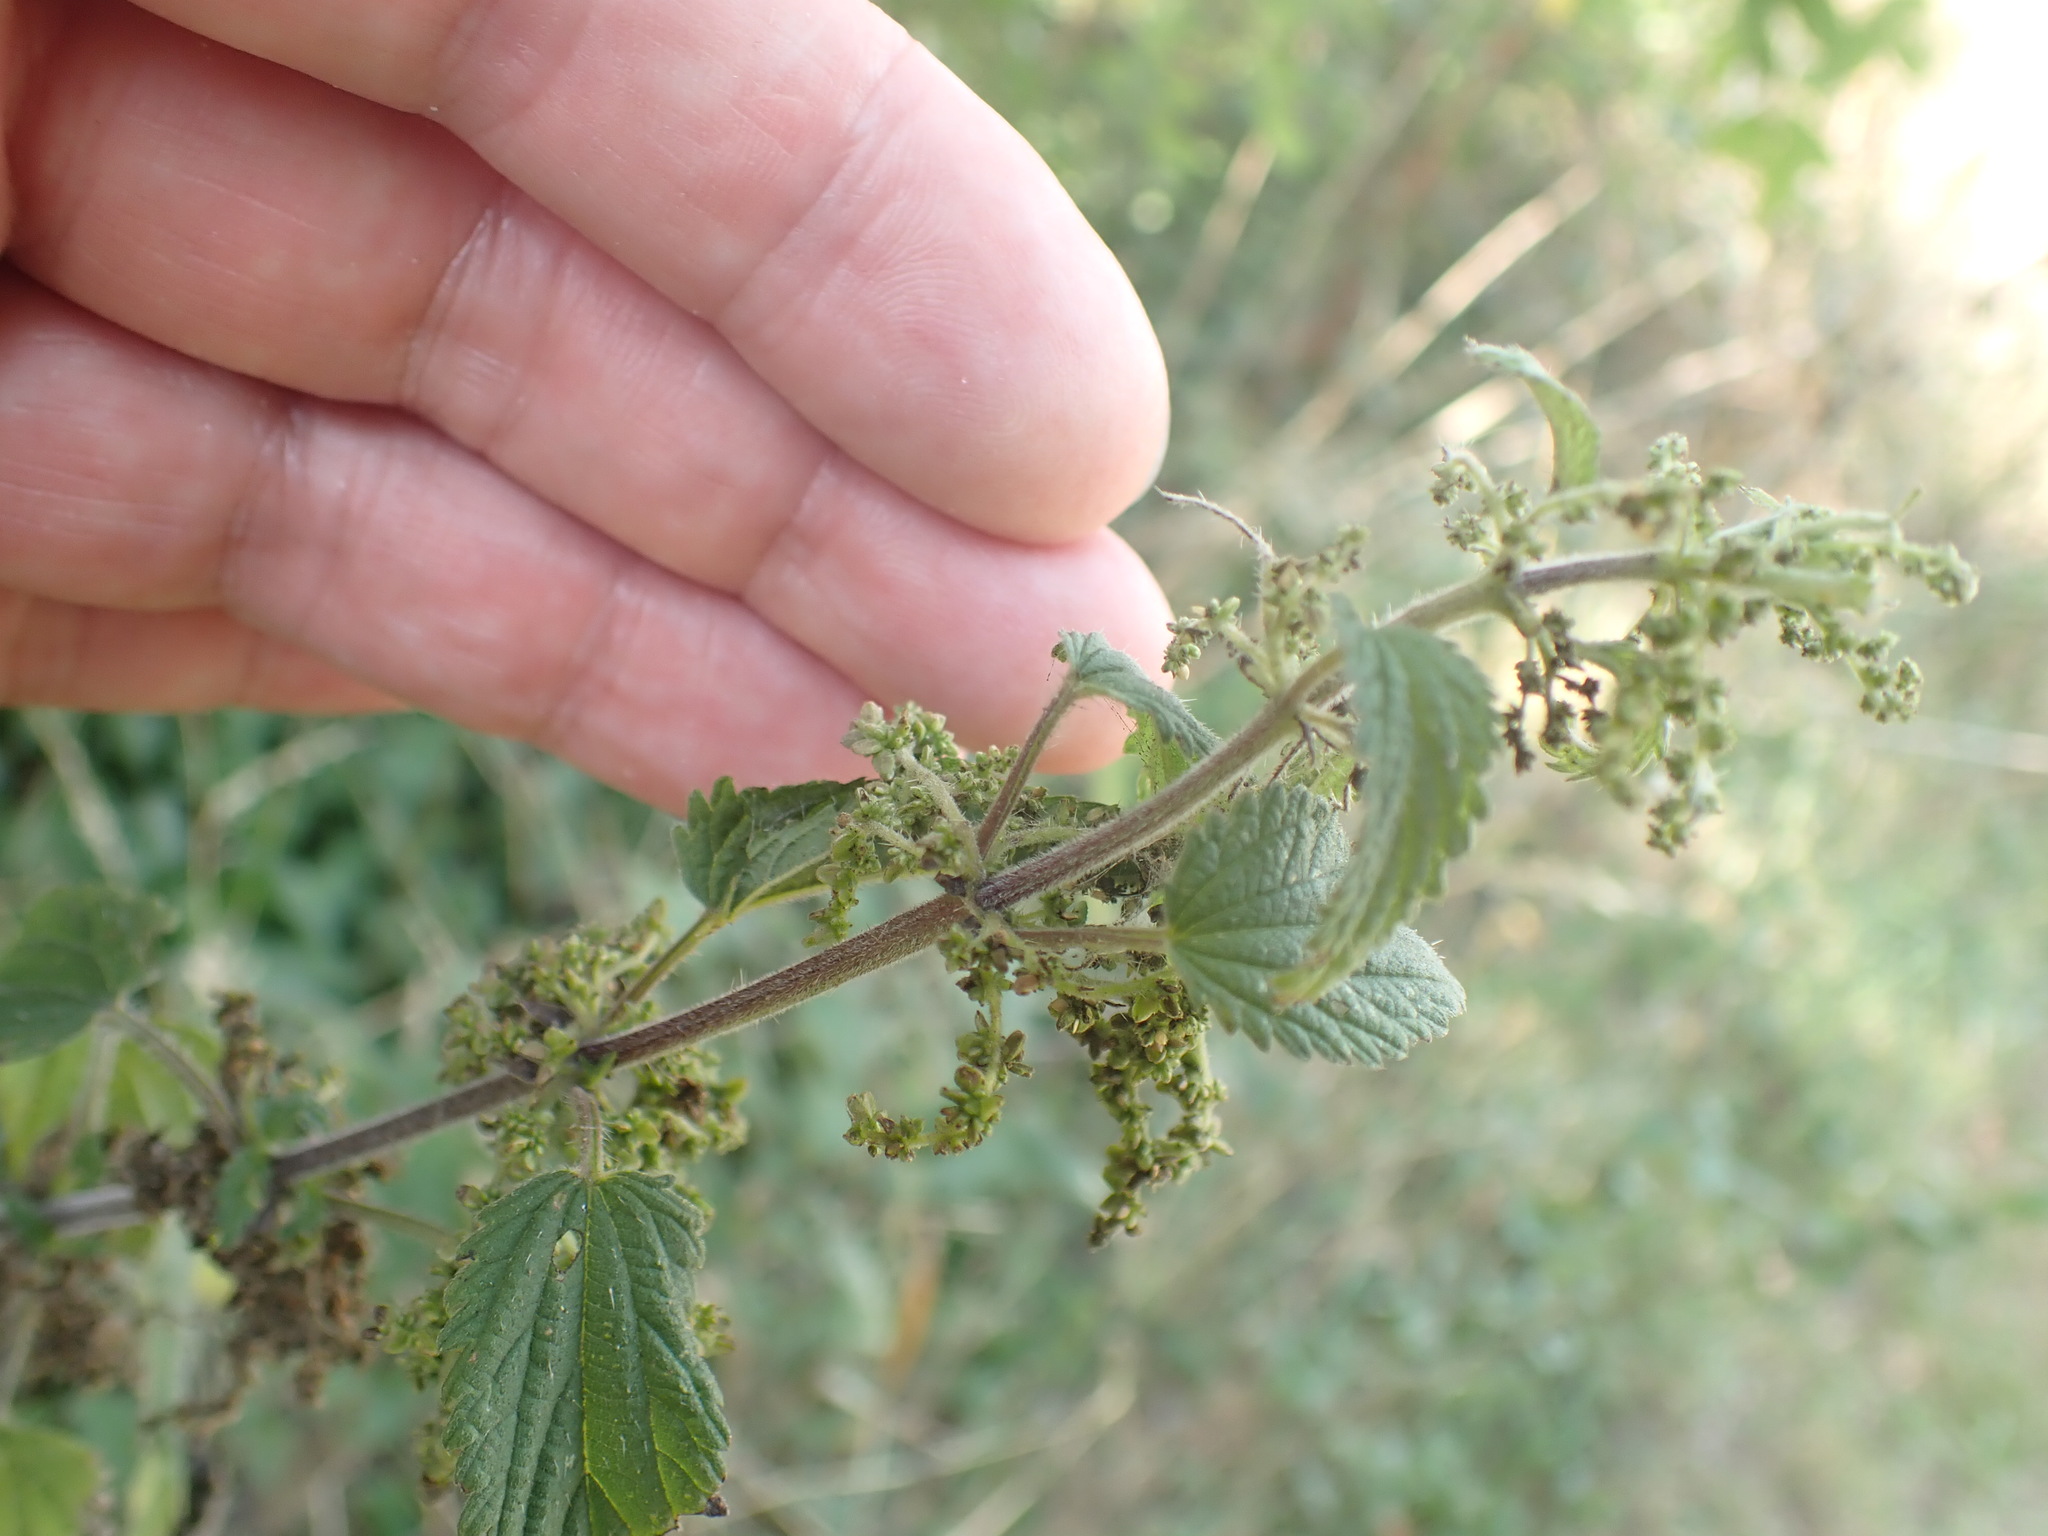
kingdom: Plantae
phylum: Tracheophyta
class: Magnoliopsida
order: Rosales
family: Urticaceae
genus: Urtica
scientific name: Urtica dioica
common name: Common nettle
